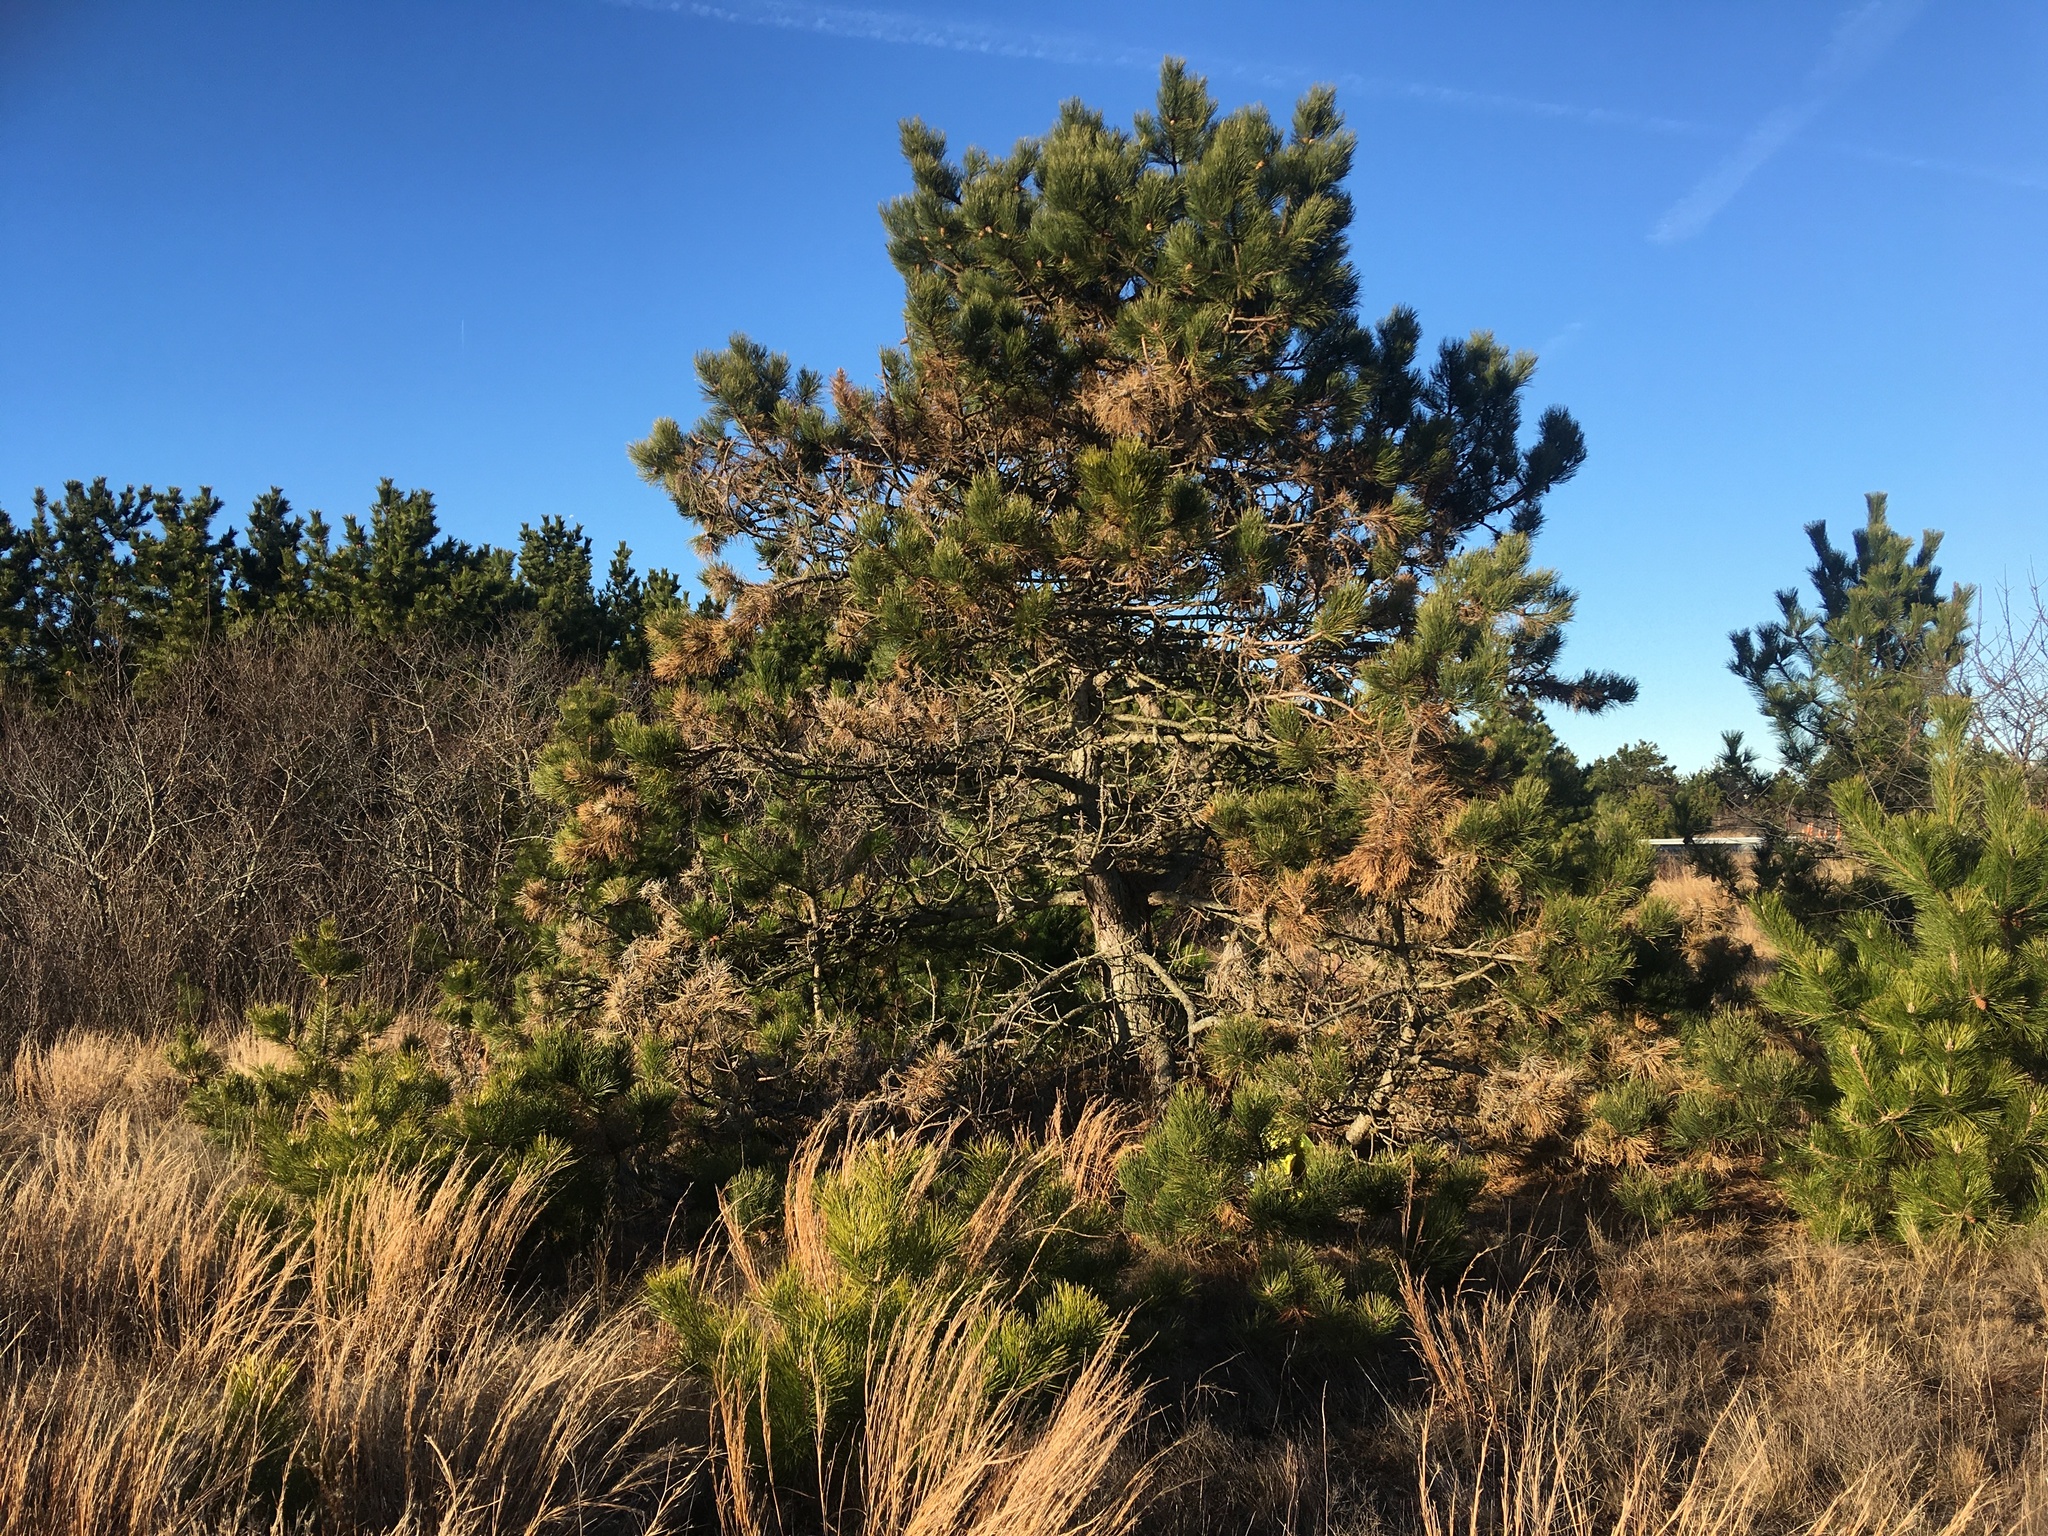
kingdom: Plantae
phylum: Tracheophyta
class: Pinopsida
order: Pinales
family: Pinaceae
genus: Pinus
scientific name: Pinus resinosa
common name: Norway pine
